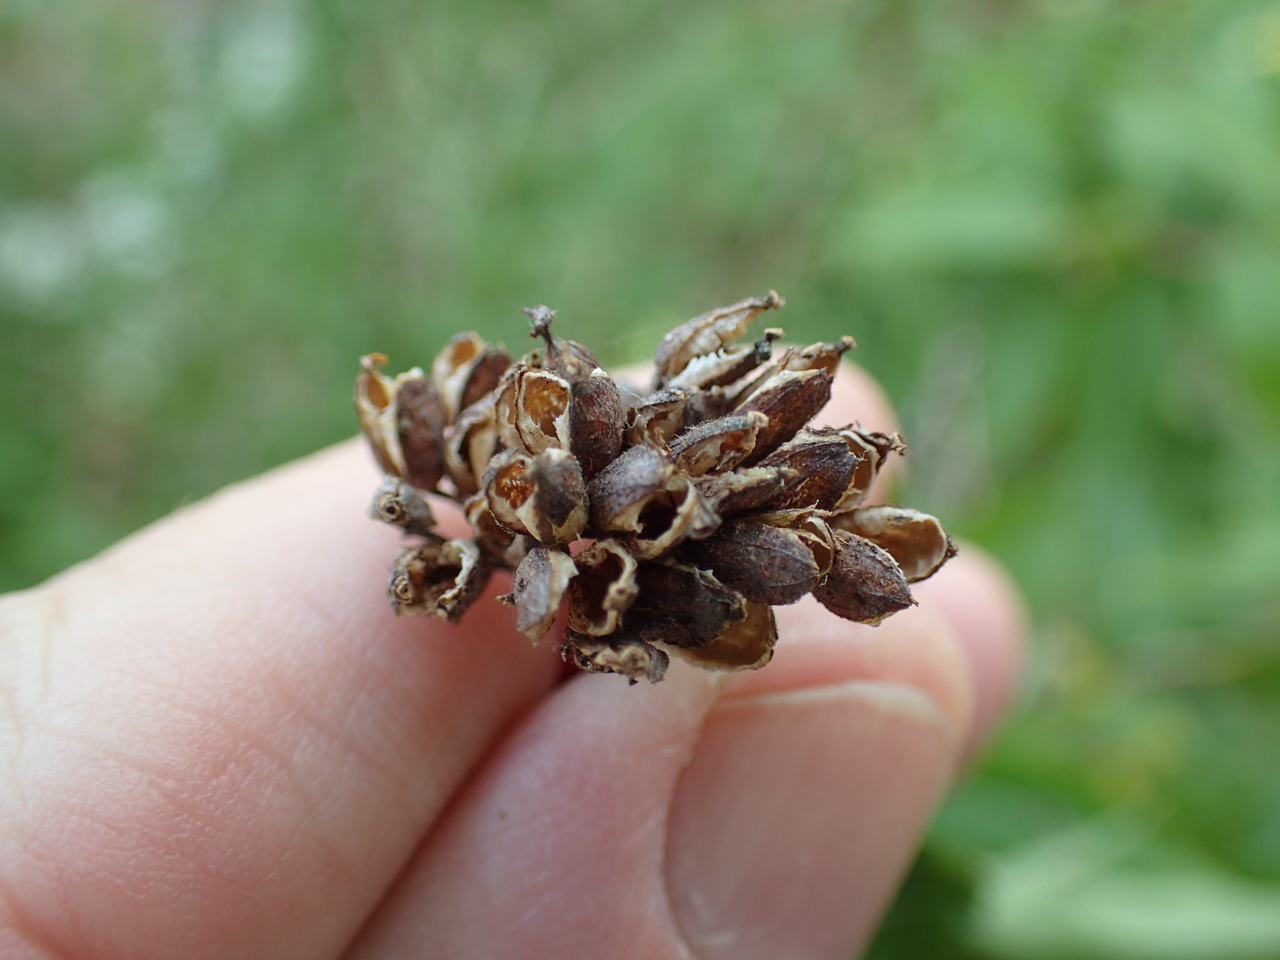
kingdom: Plantae
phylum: Tracheophyta
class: Magnoliopsida
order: Dipsacales
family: Caprifoliaceae
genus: Diervilla
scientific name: Diervilla rivularis
